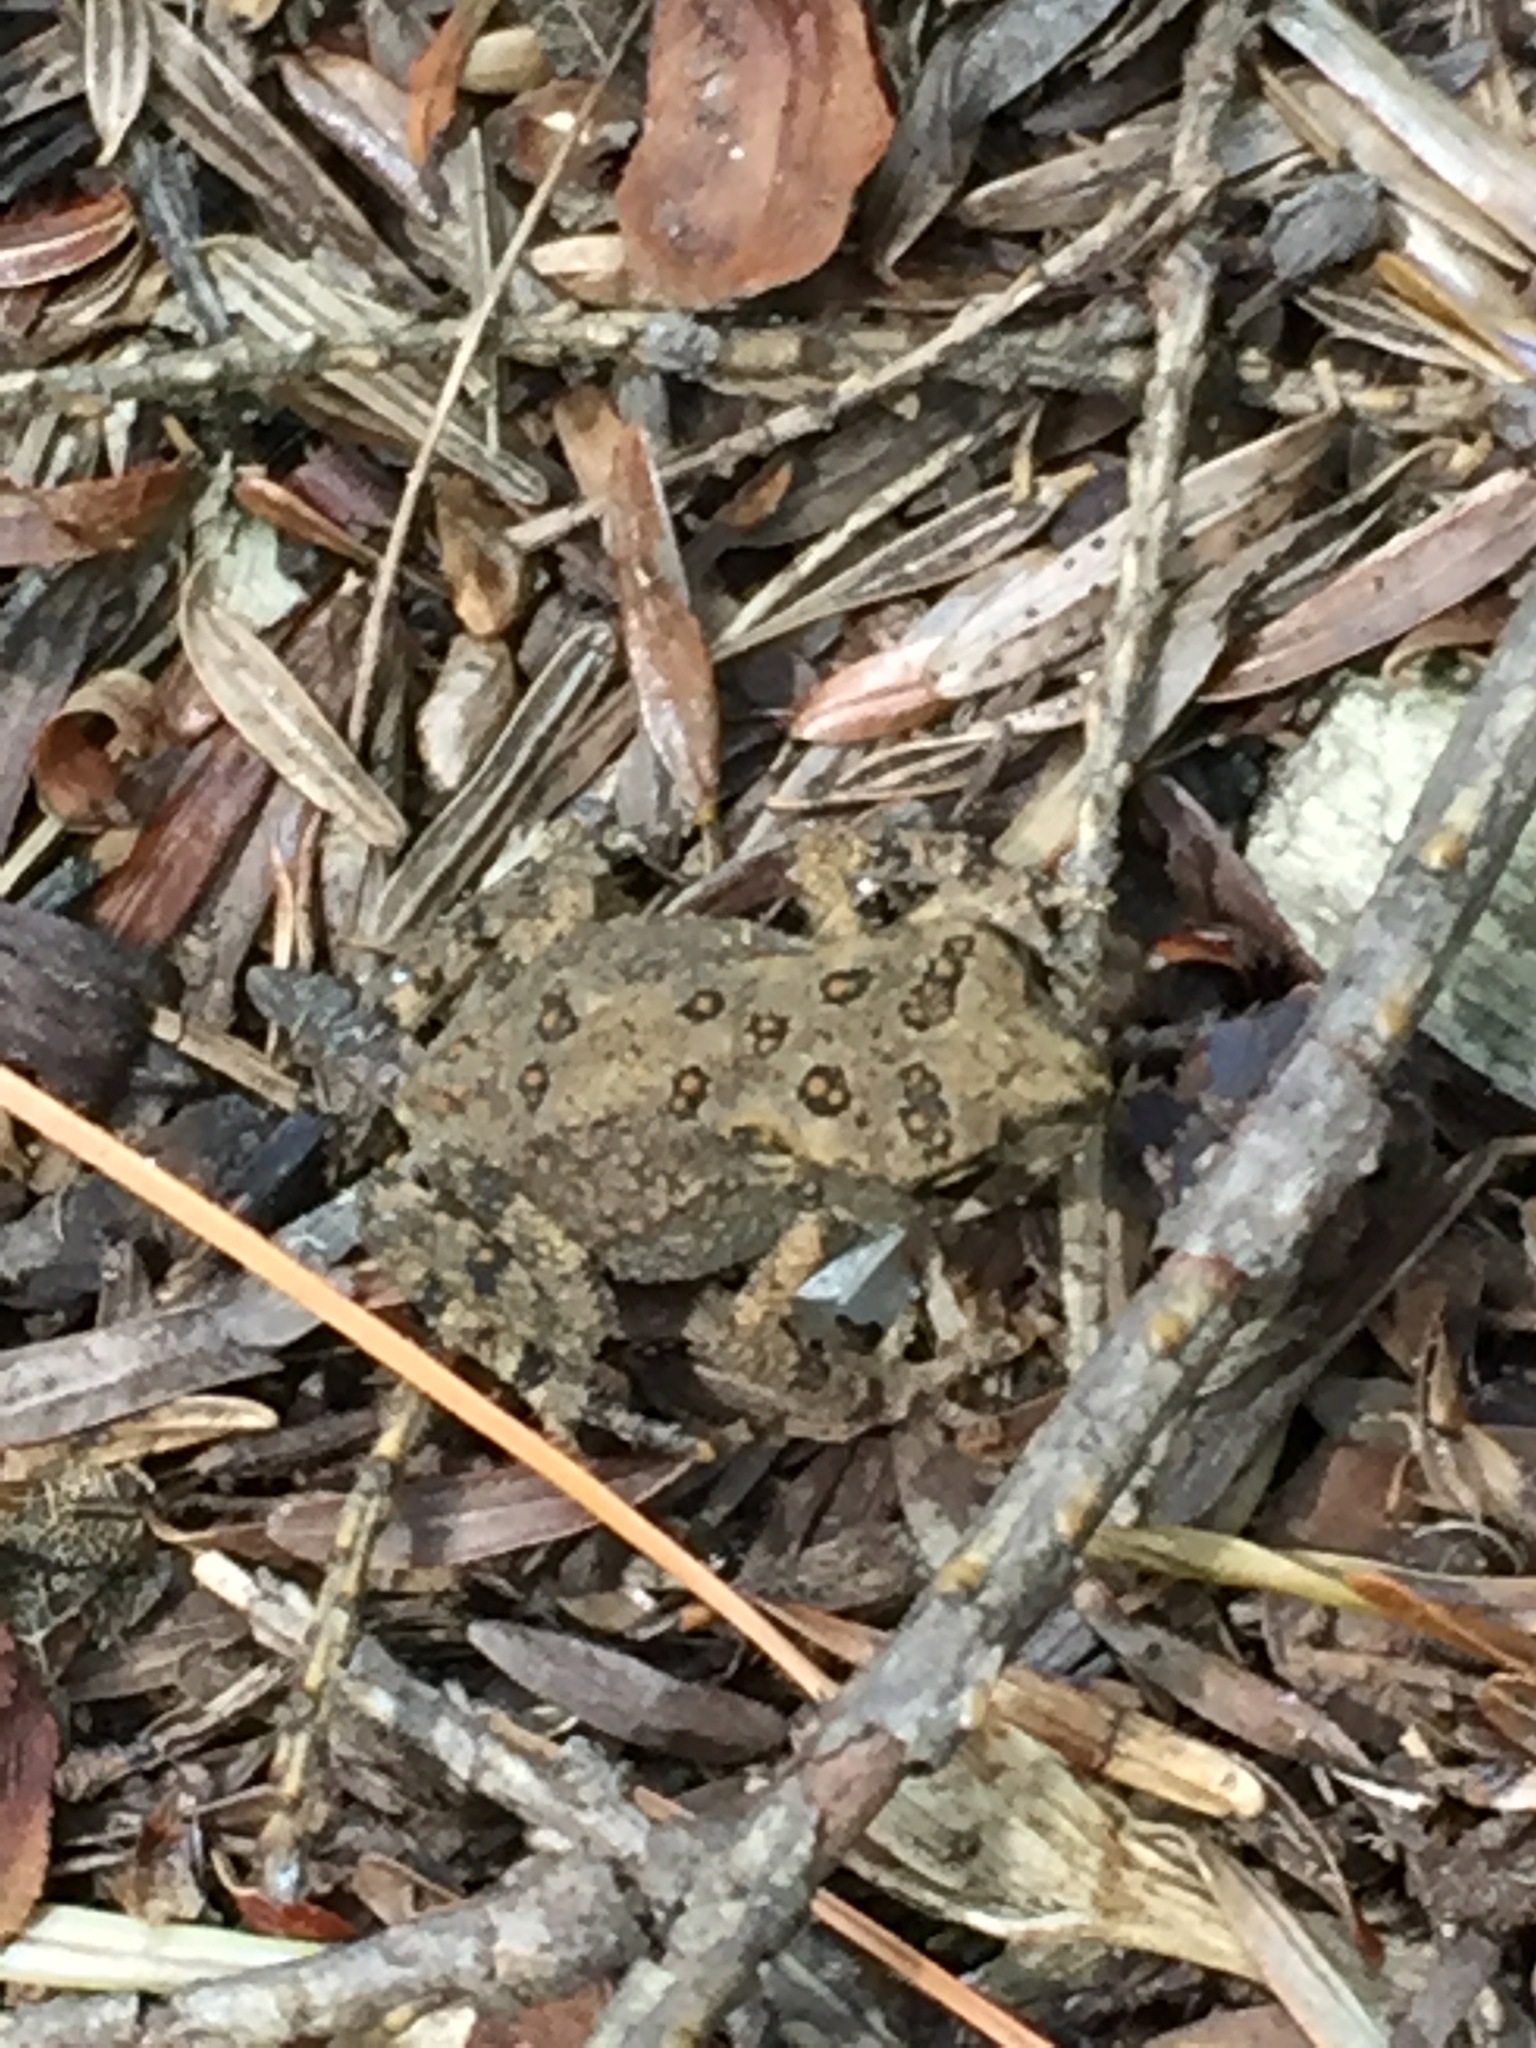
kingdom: Animalia
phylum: Chordata
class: Amphibia
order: Anura
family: Bufonidae
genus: Anaxyrus
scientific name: Anaxyrus americanus
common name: American toad
